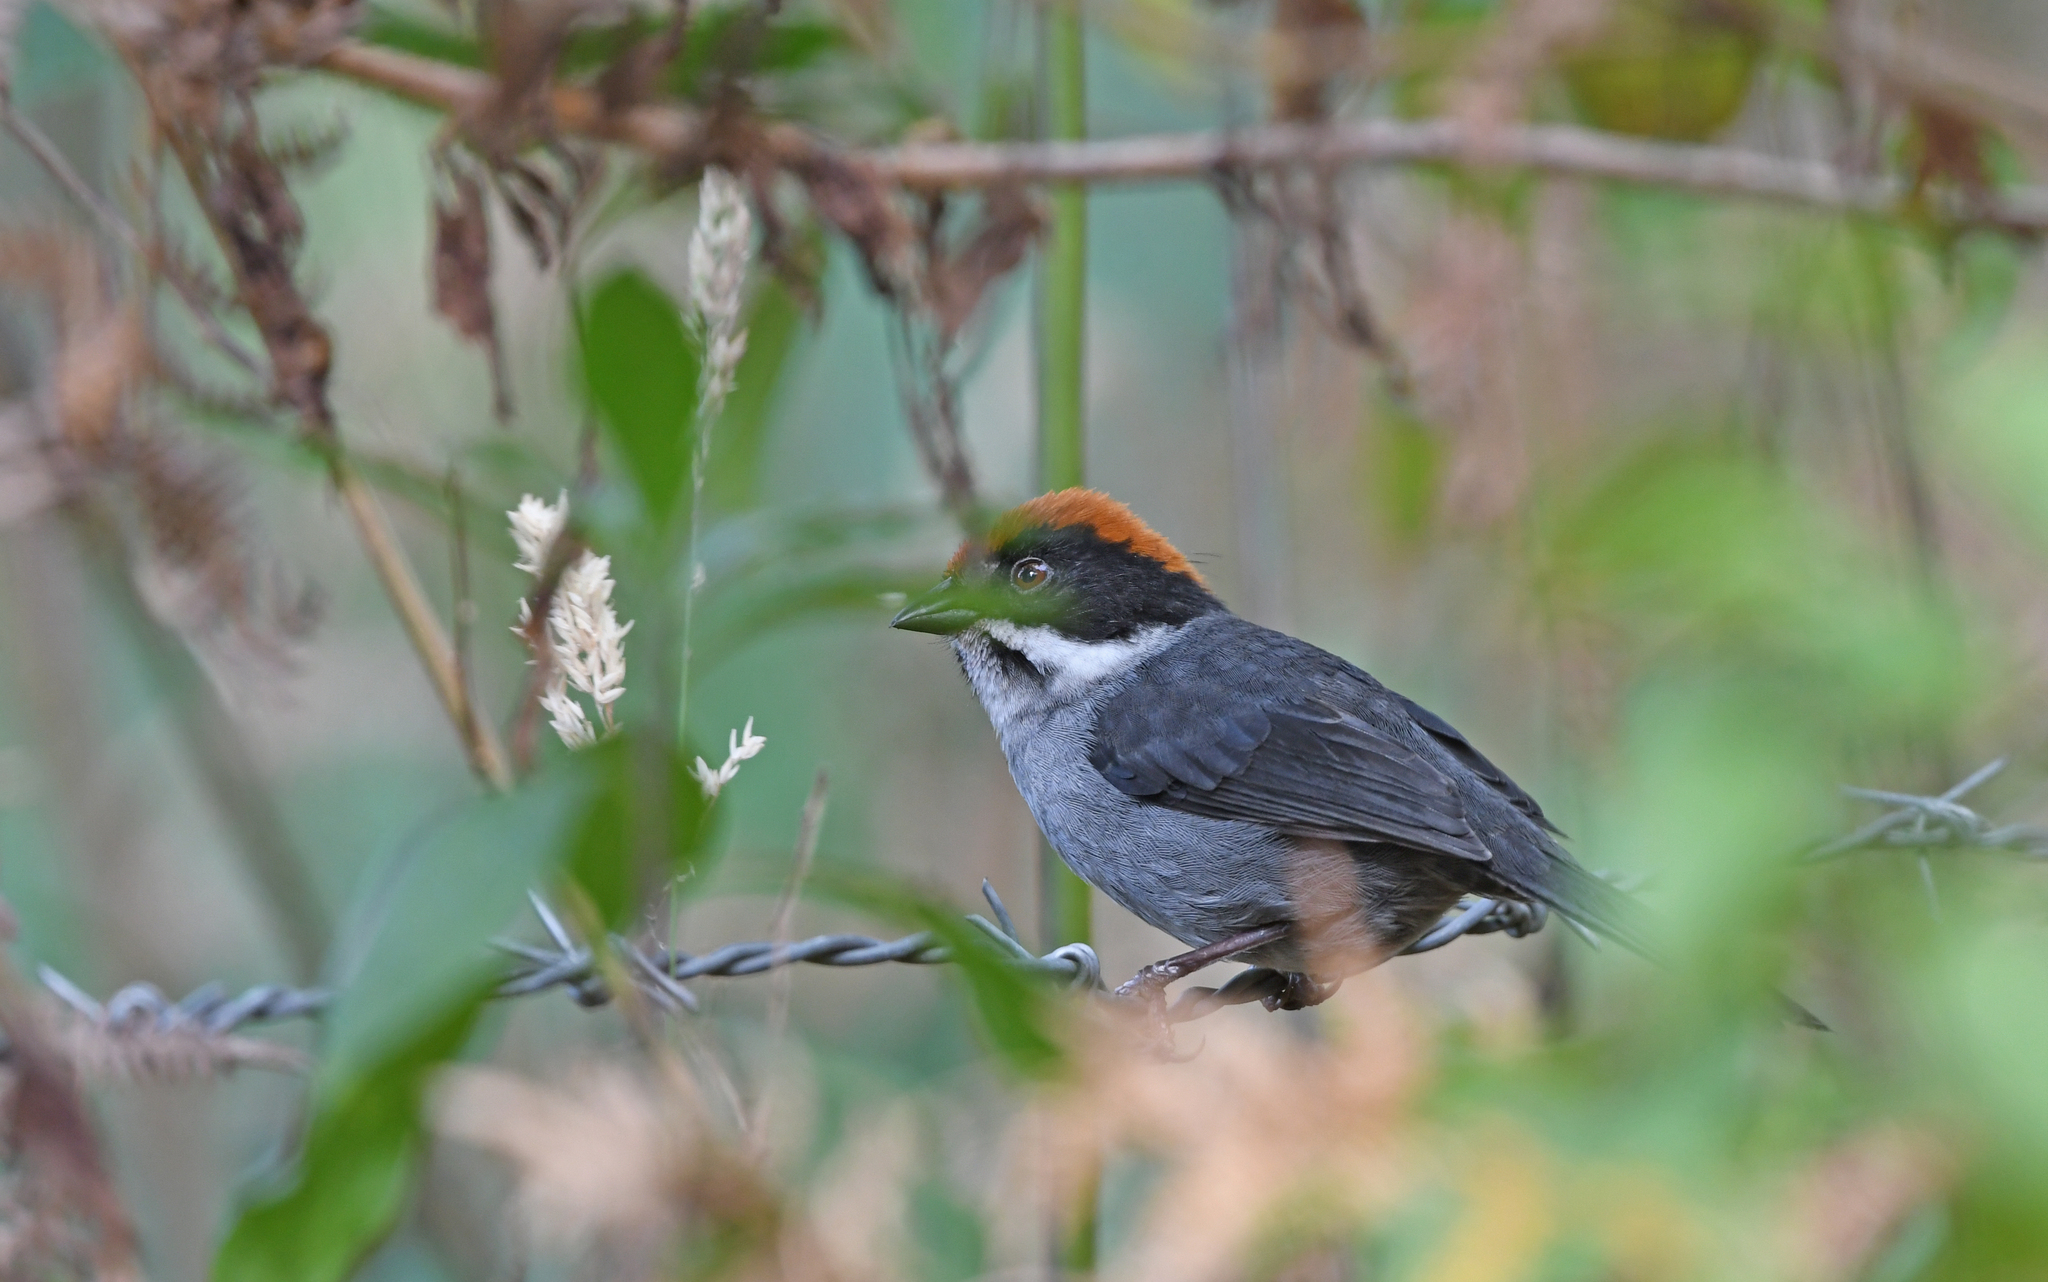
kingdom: Animalia
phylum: Chordata
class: Aves
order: Passeriformes
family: Passerellidae
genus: Atlapetes
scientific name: Atlapetes schistaceus
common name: Slaty brushfinch
